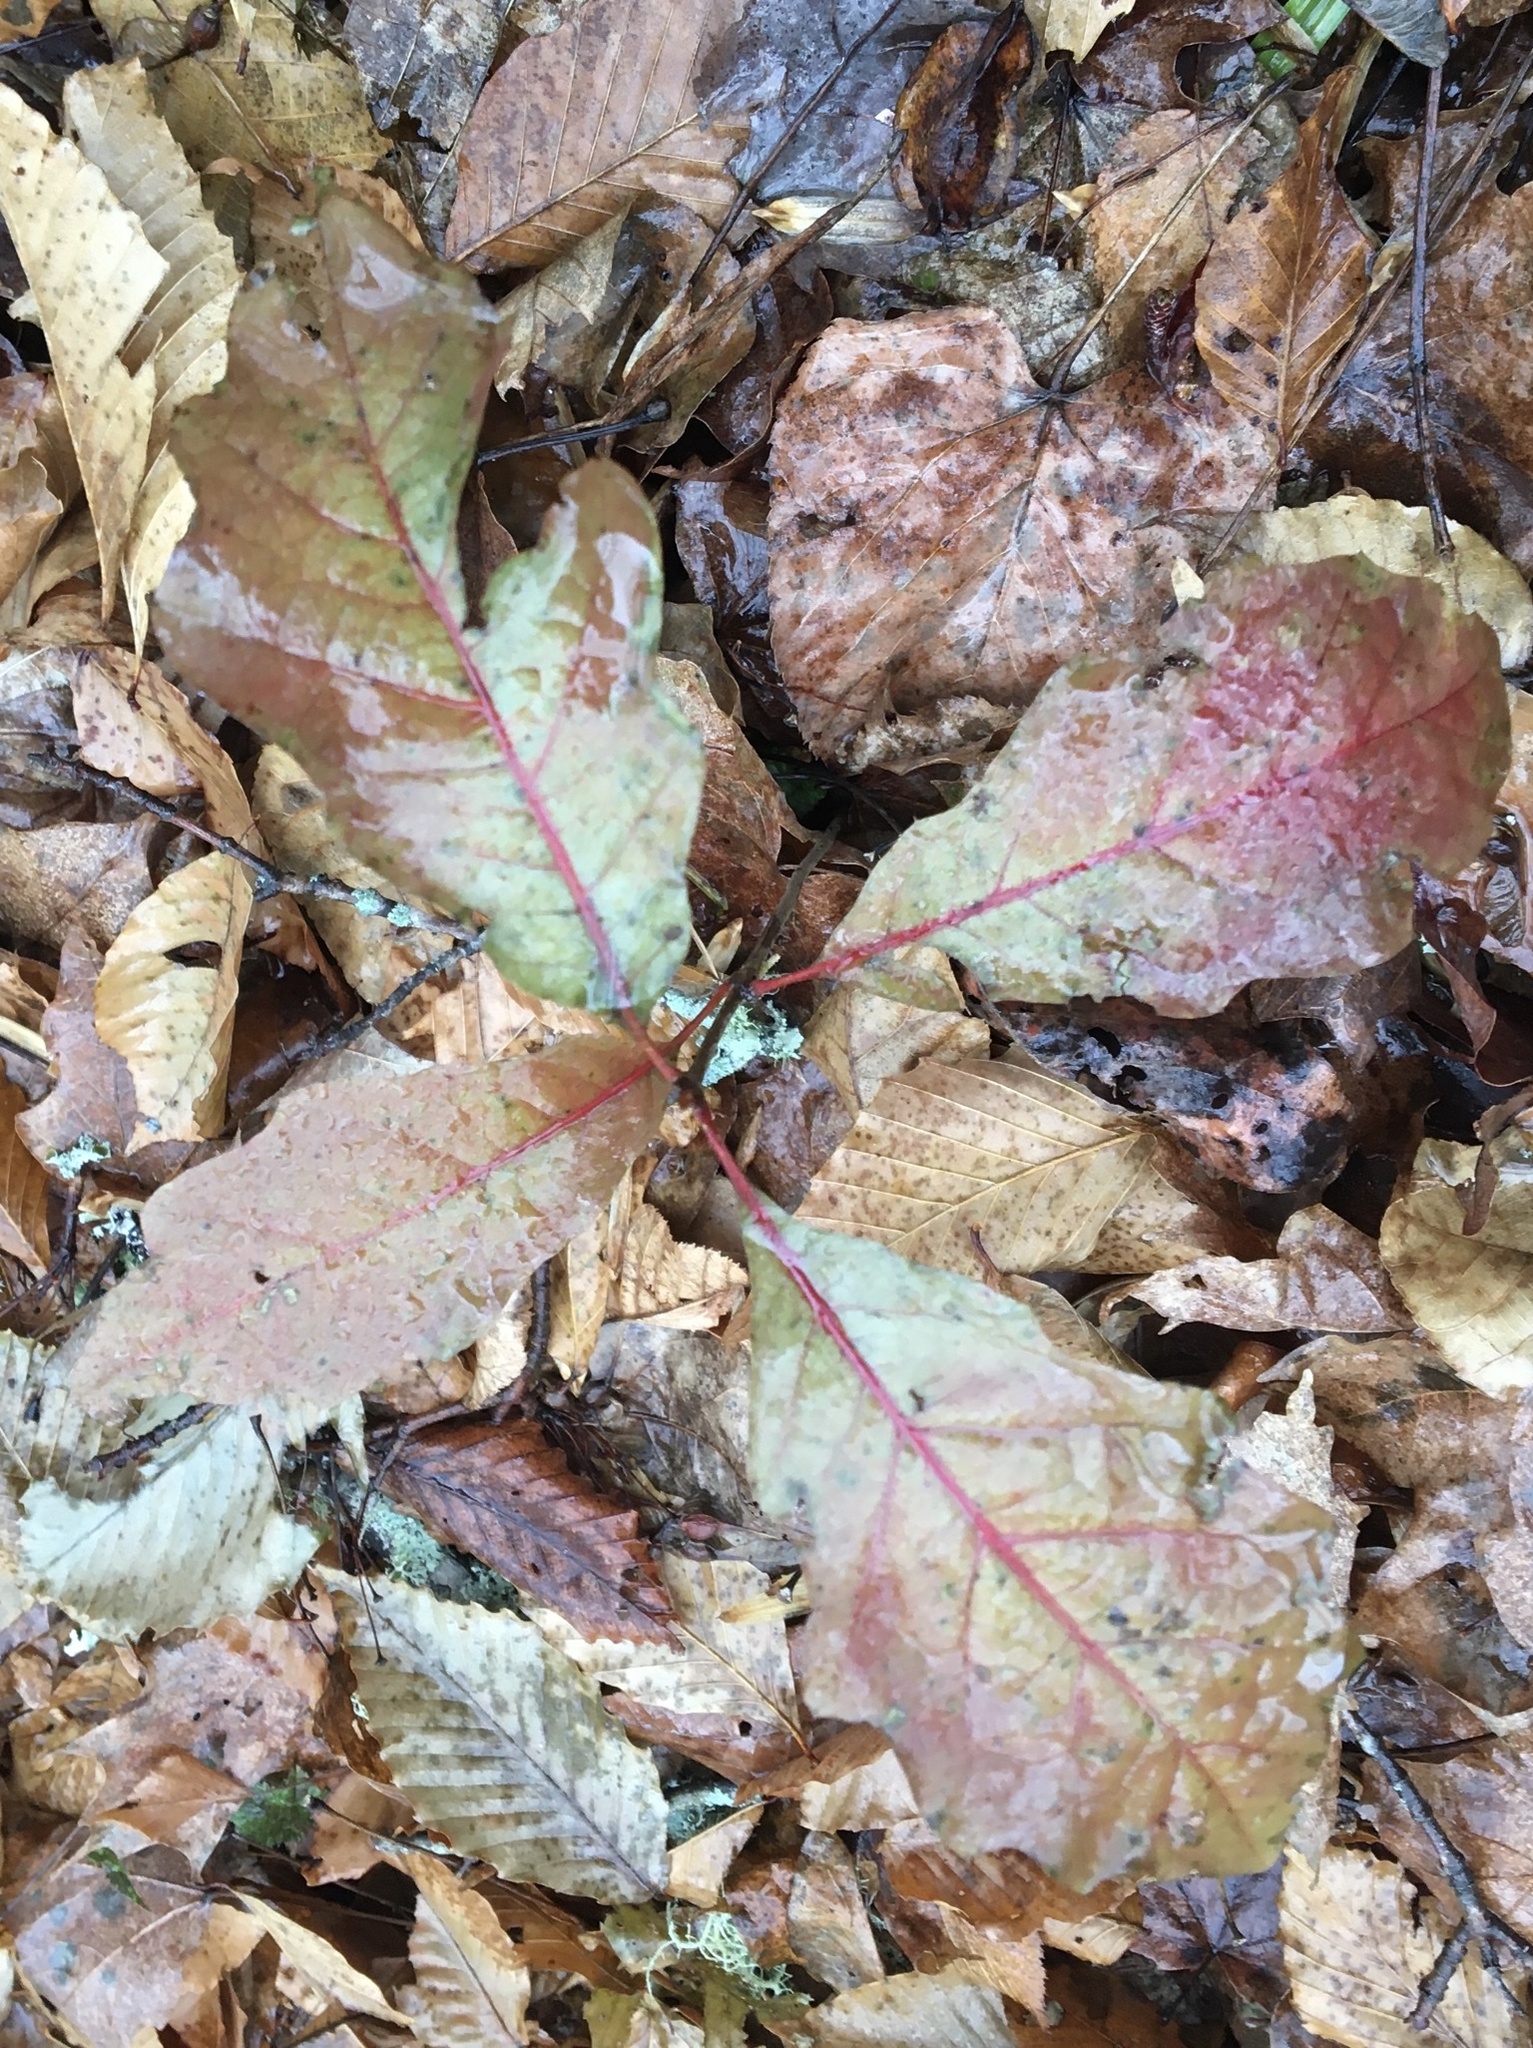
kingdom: Plantae
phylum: Tracheophyta
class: Magnoliopsida
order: Fagales
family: Fagaceae
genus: Quercus
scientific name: Quercus rubra
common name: Red oak
